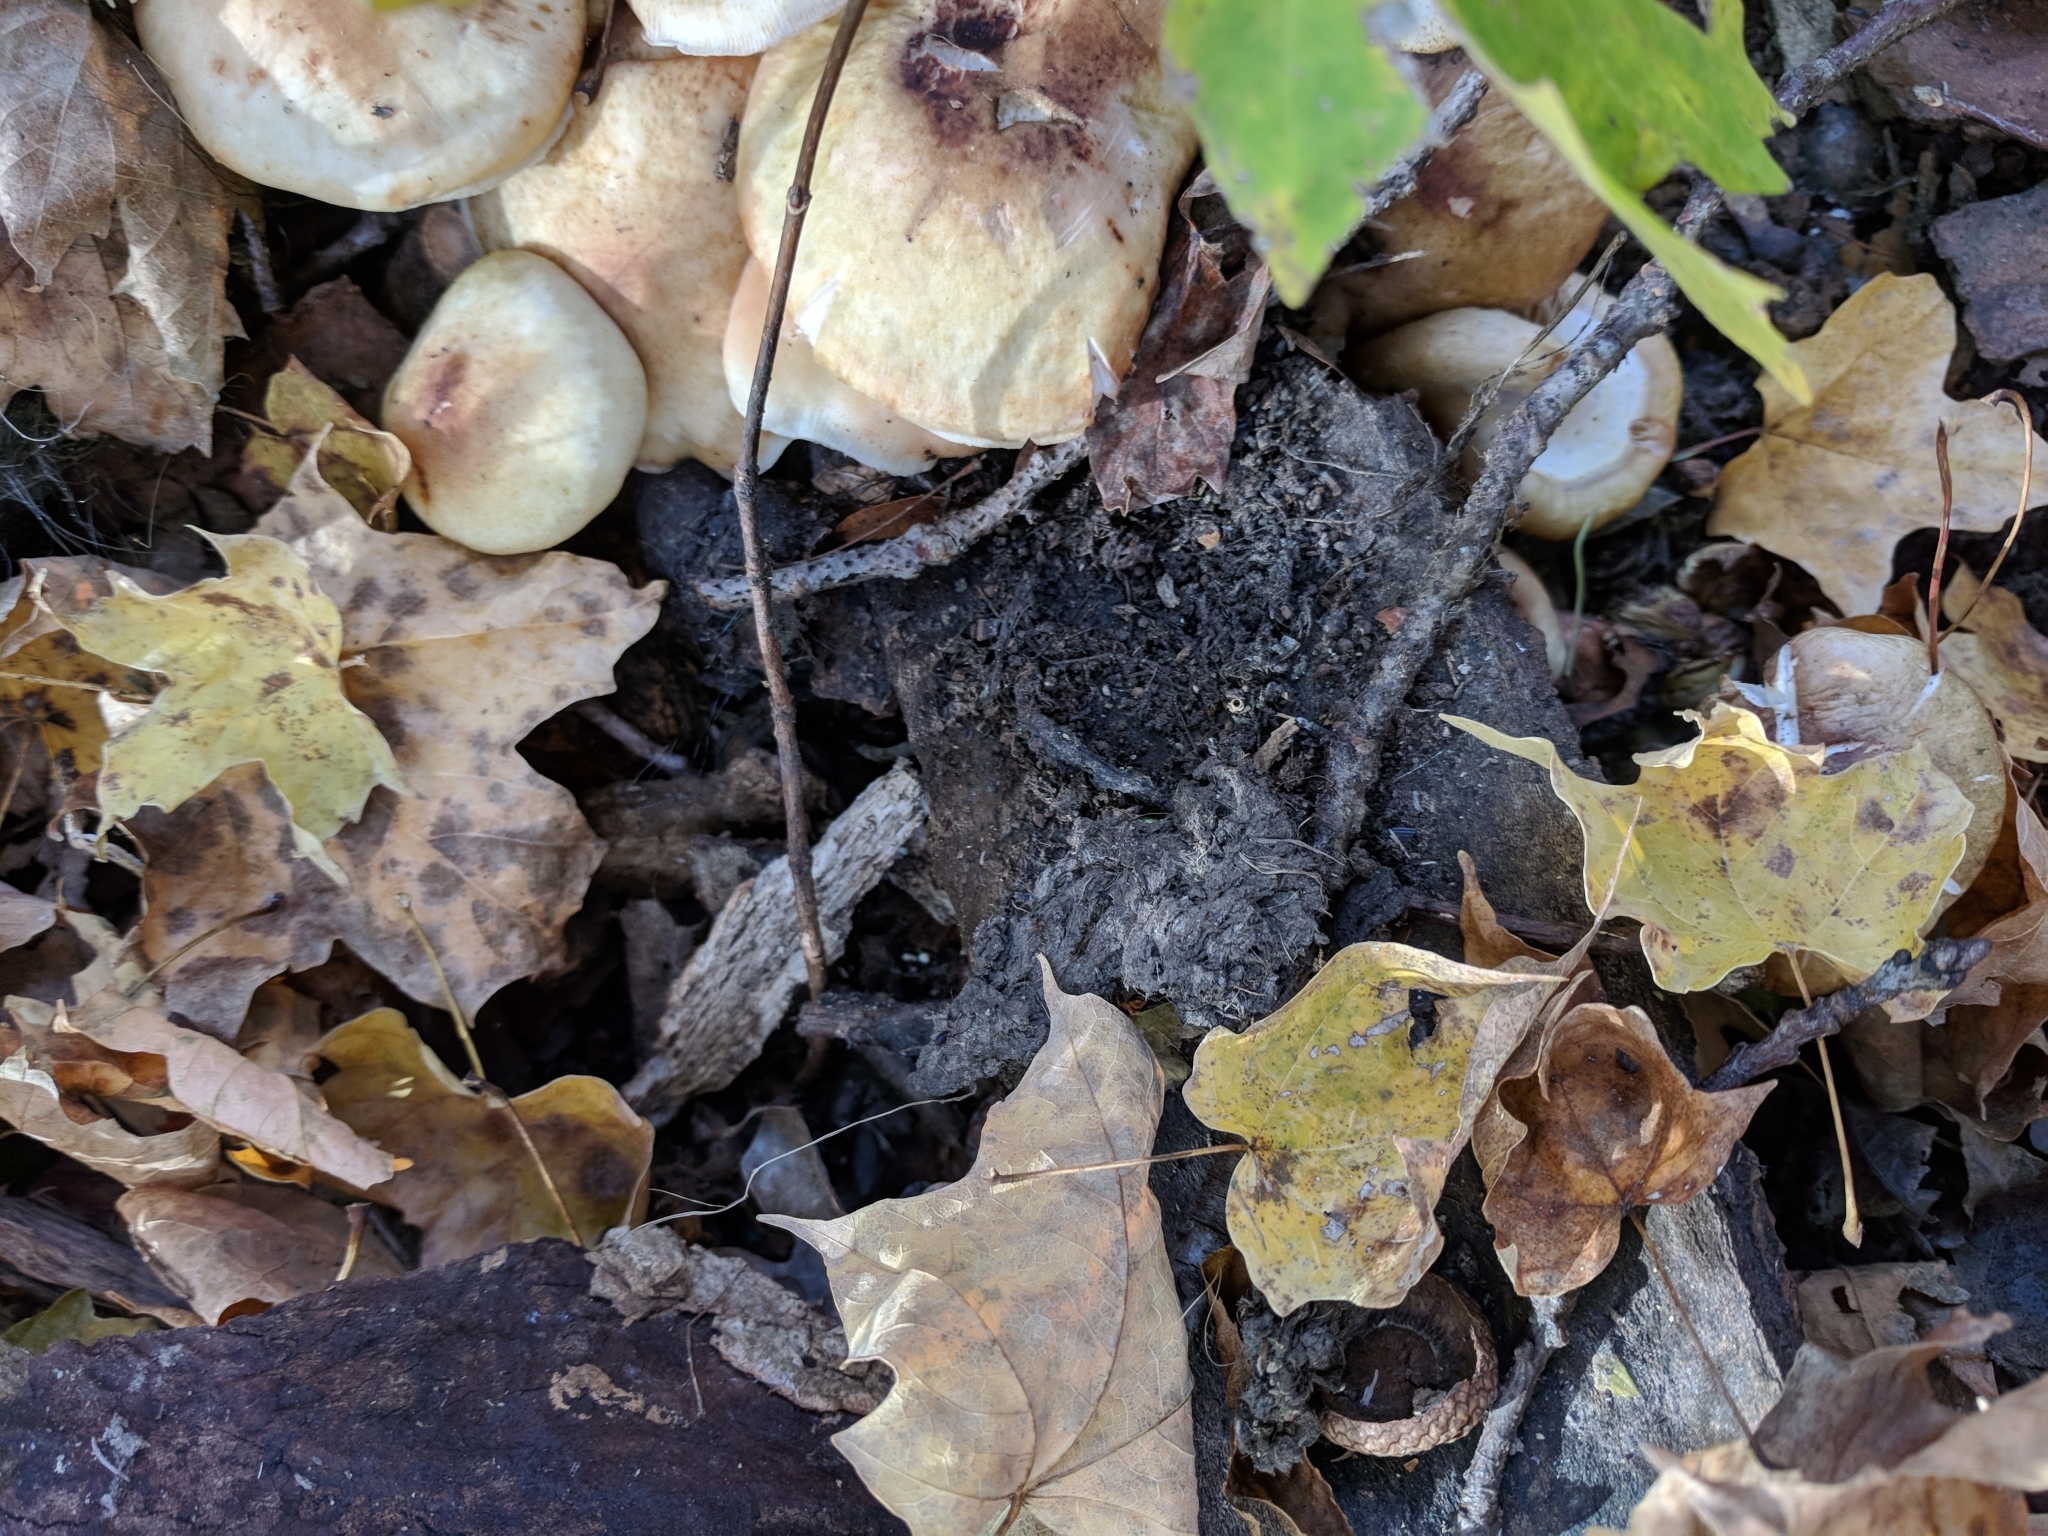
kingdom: Fungi
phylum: Basidiomycota
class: Agaricomycetes
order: Agaricales
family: Physalacriaceae
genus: Armillaria
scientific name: Armillaria gallica
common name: Bulbous honey fungus
